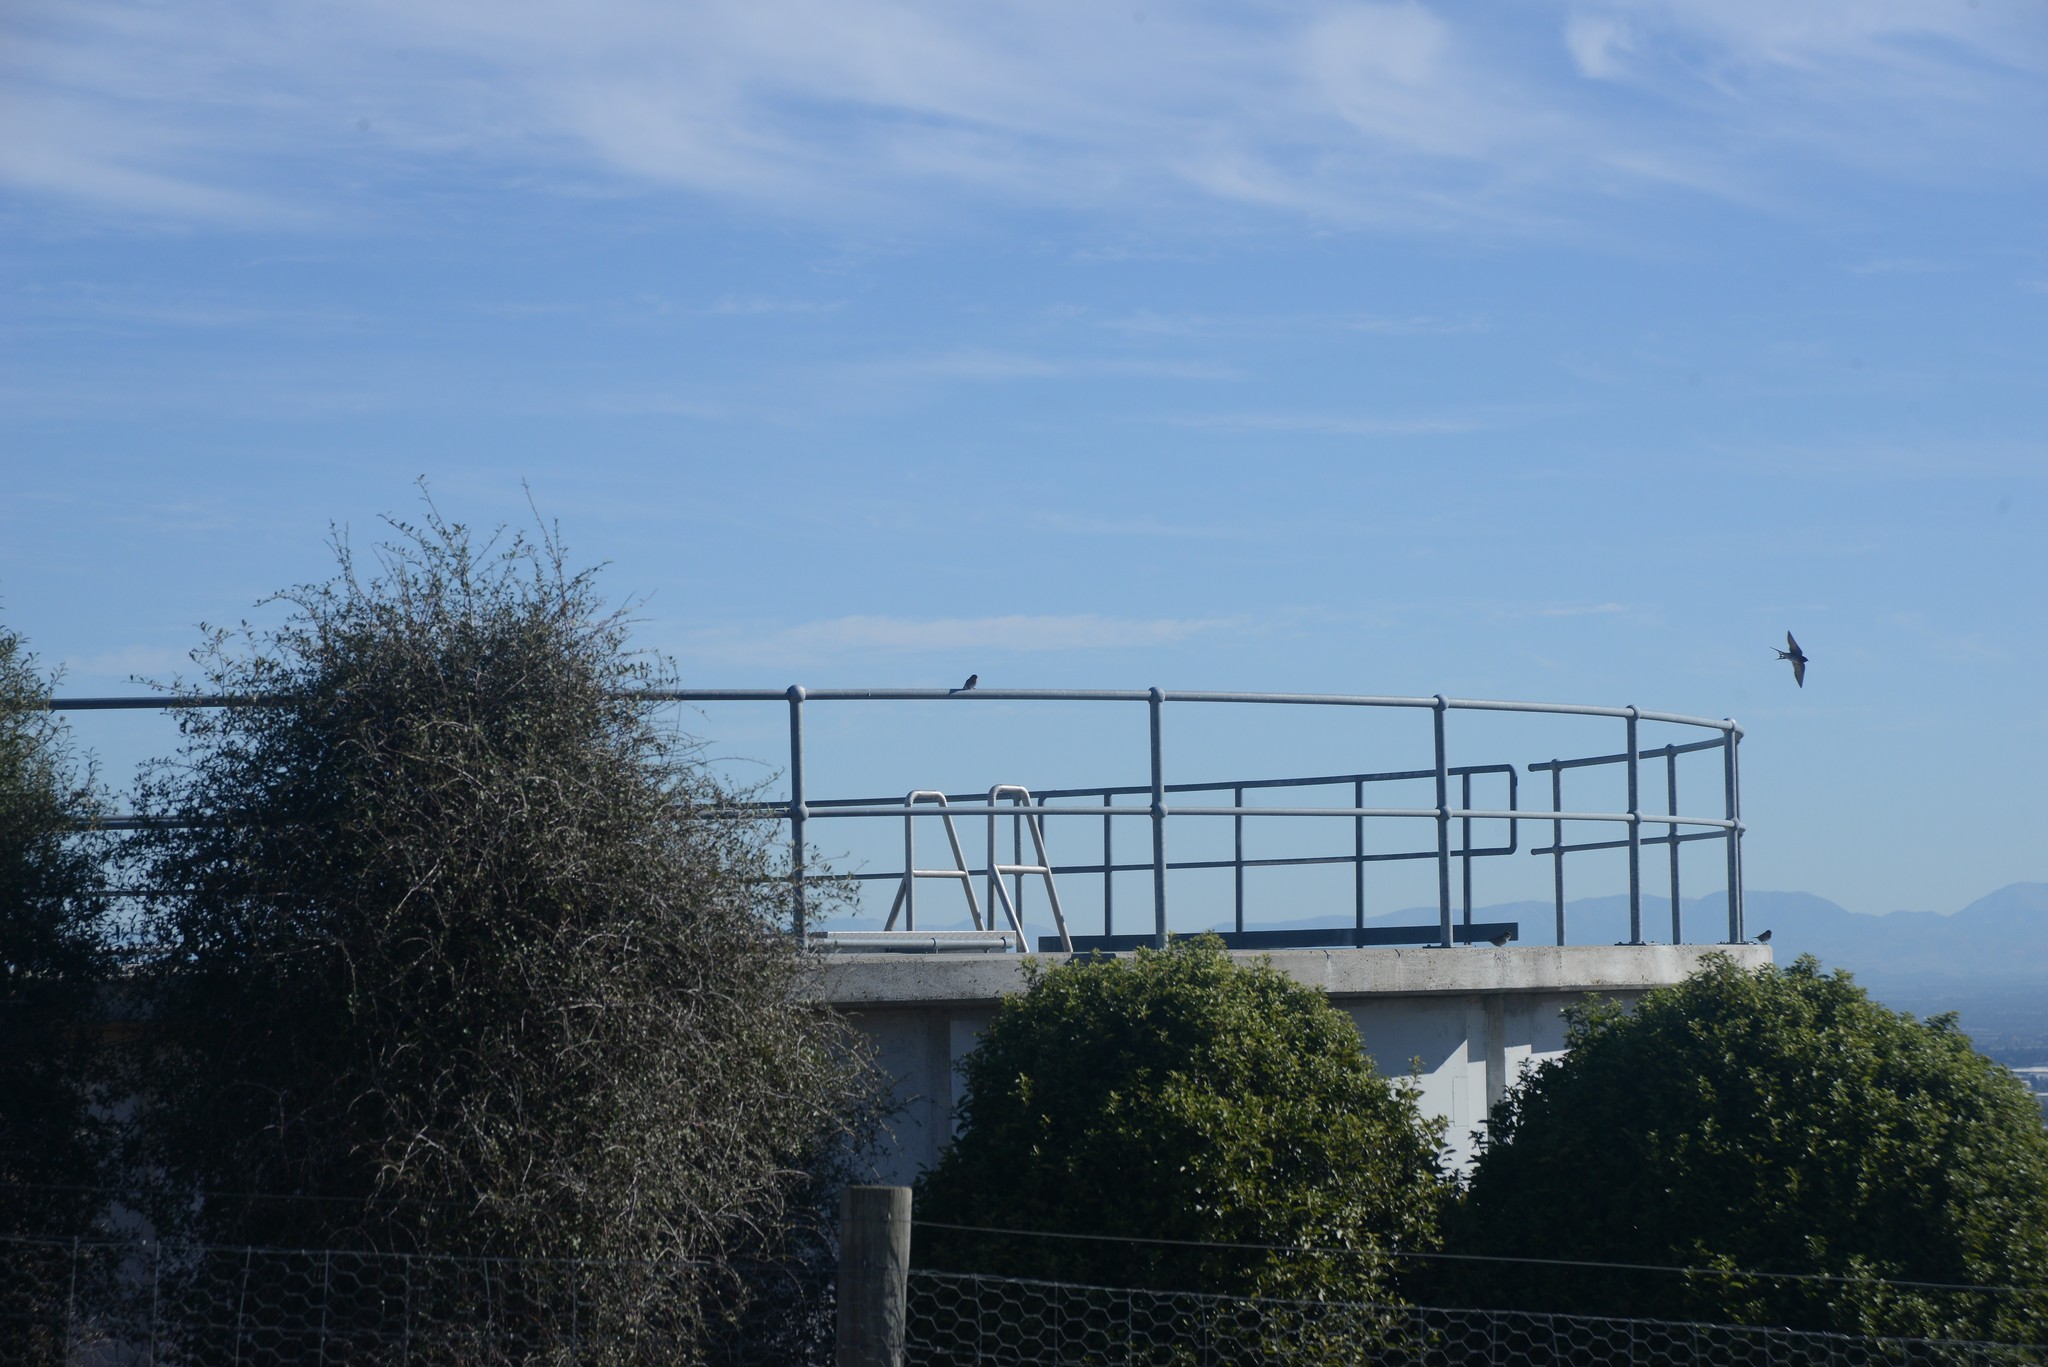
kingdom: Animalia
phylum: Chordata
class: Aves
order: Passeriformes
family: Hirundinidae
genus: Hirundo
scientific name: Hirundo neoxena
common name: Welcome swallow
